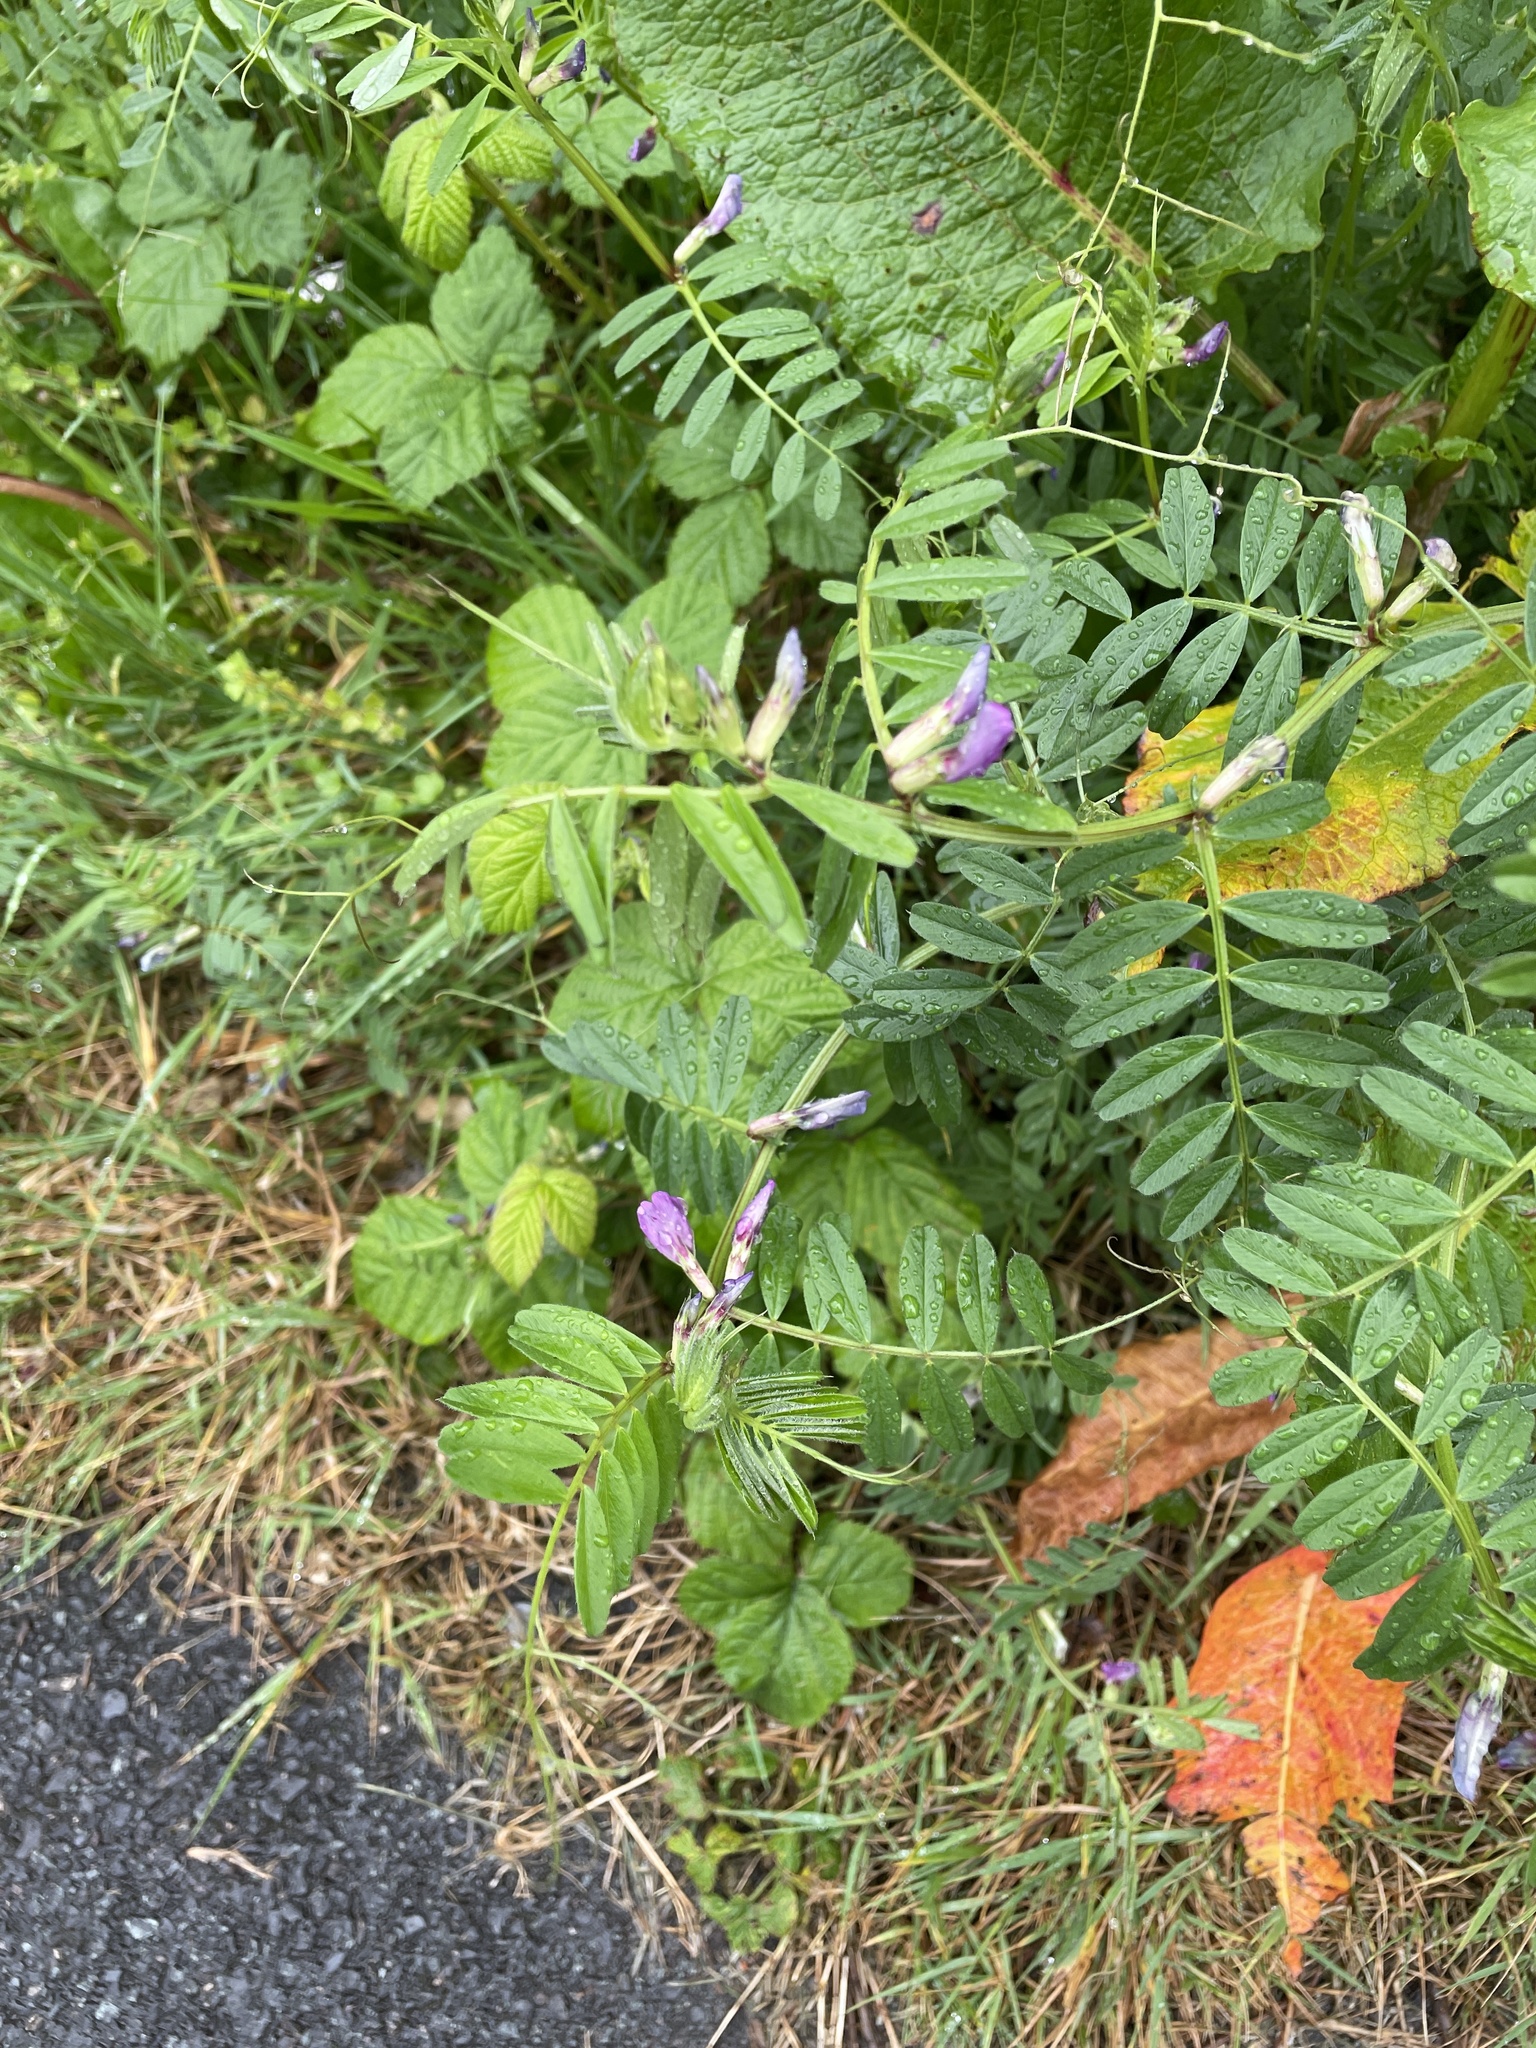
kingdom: Plantae
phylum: Tracheophyta
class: Magnoliopsida
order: Fabales
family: Fabaceae
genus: Vicia
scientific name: Vicia sativa
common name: Garden vetch
